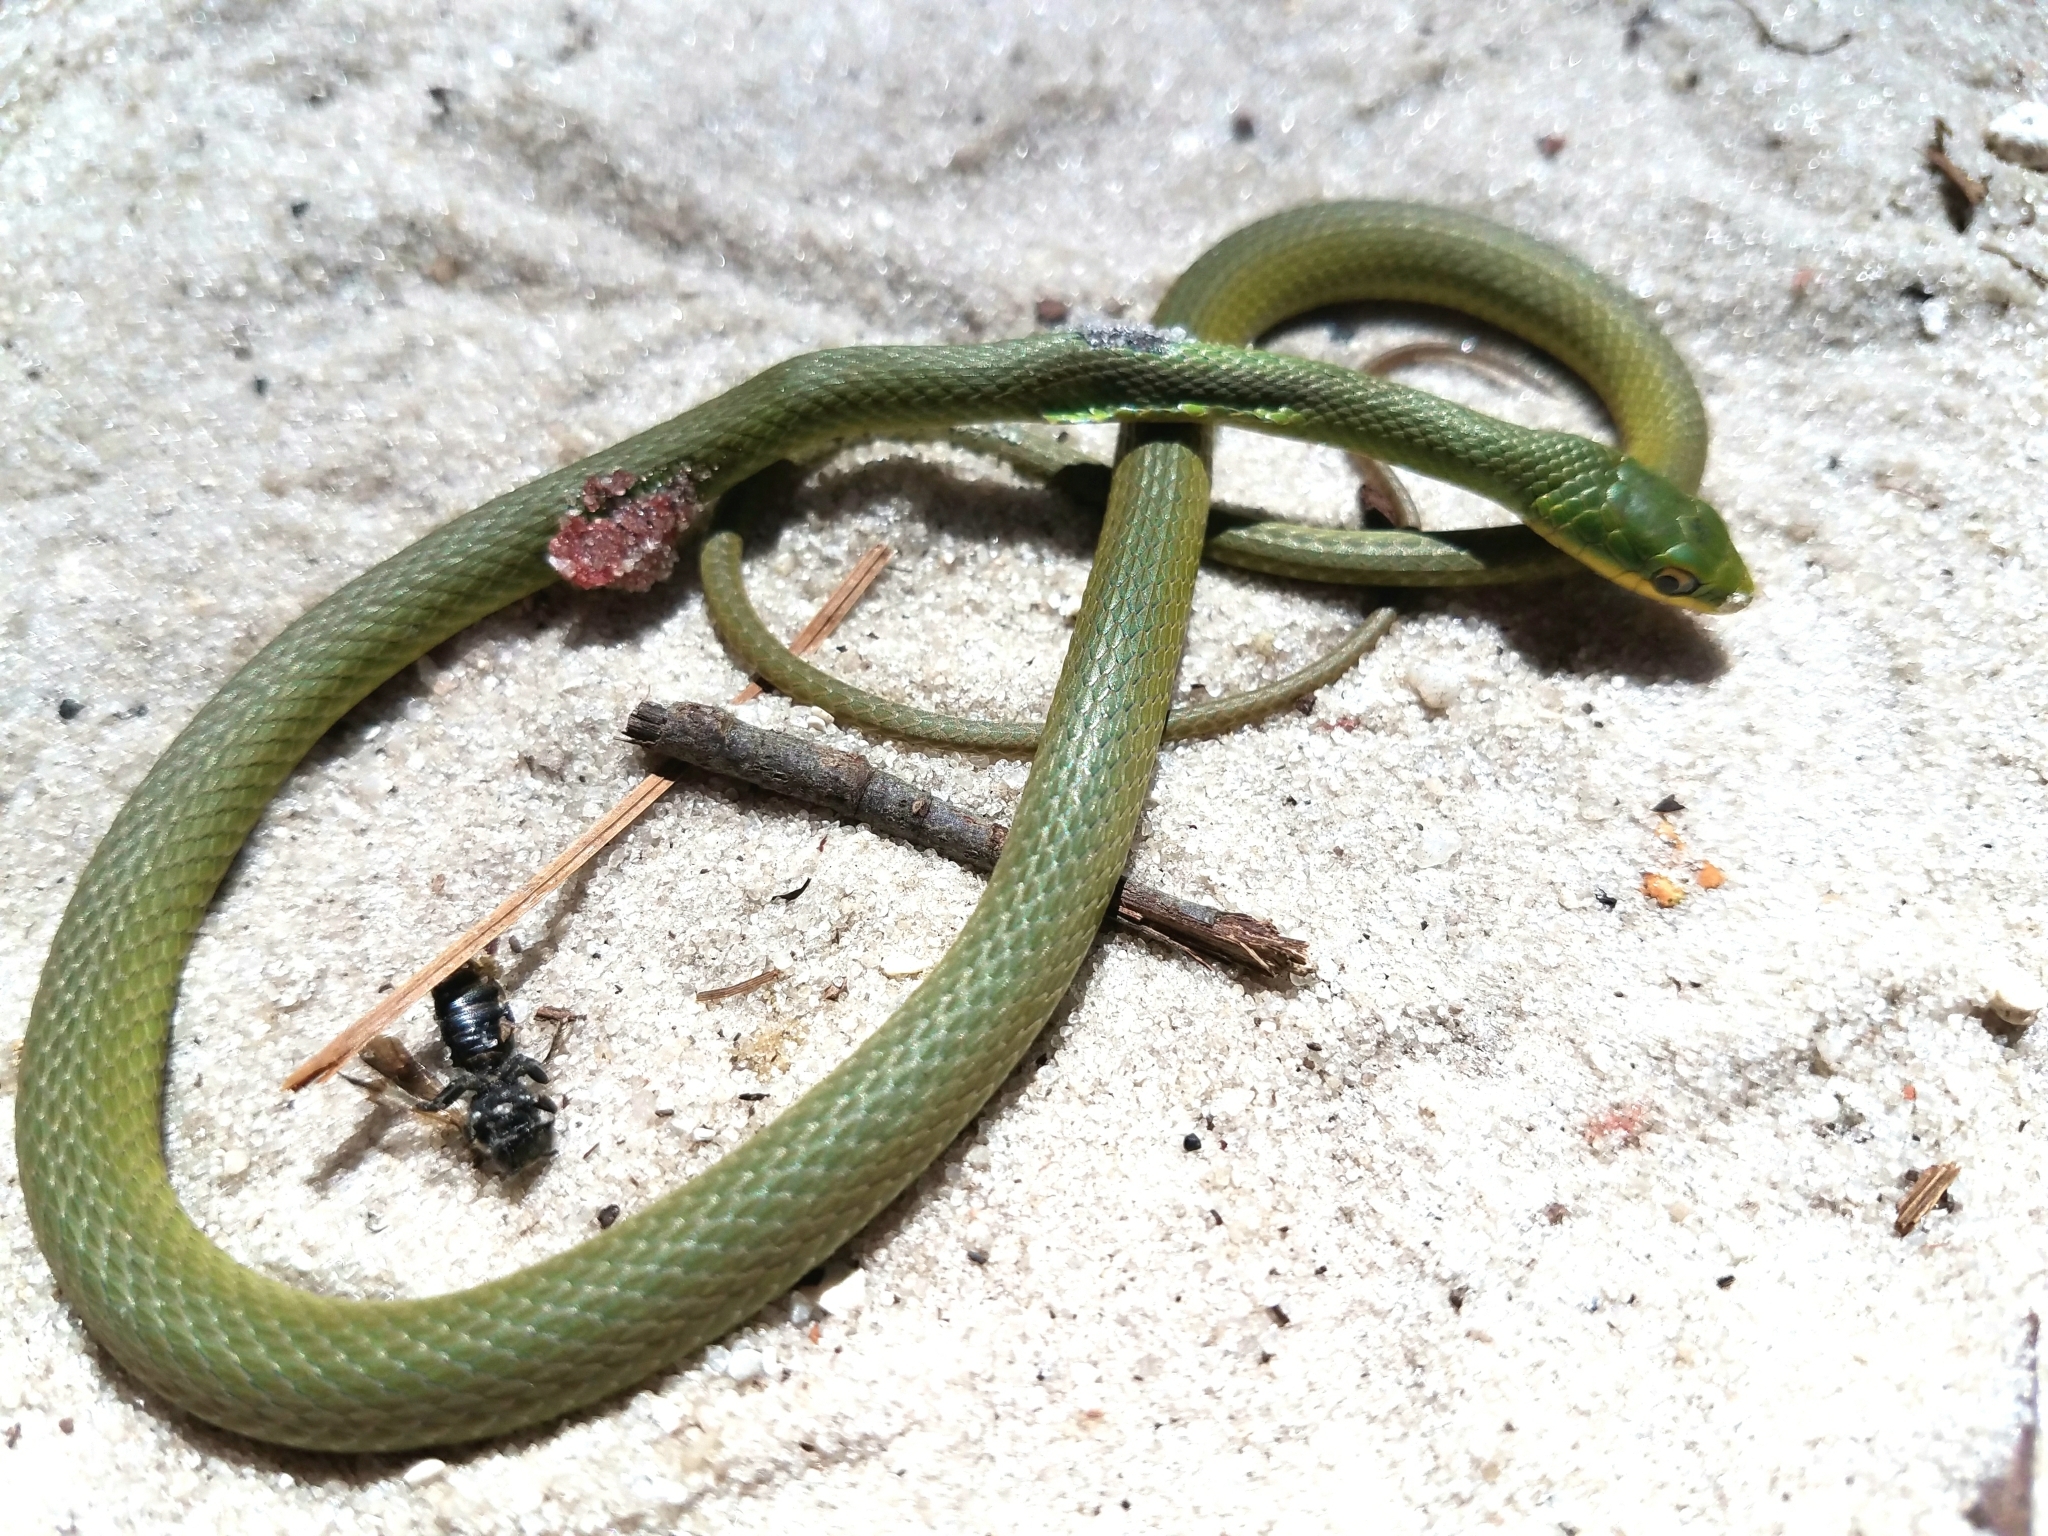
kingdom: Animalia
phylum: Chordata
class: Squamata
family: Colubridae
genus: Opheodrys
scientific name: Opheodrys aestivus
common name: Rough greensnake
